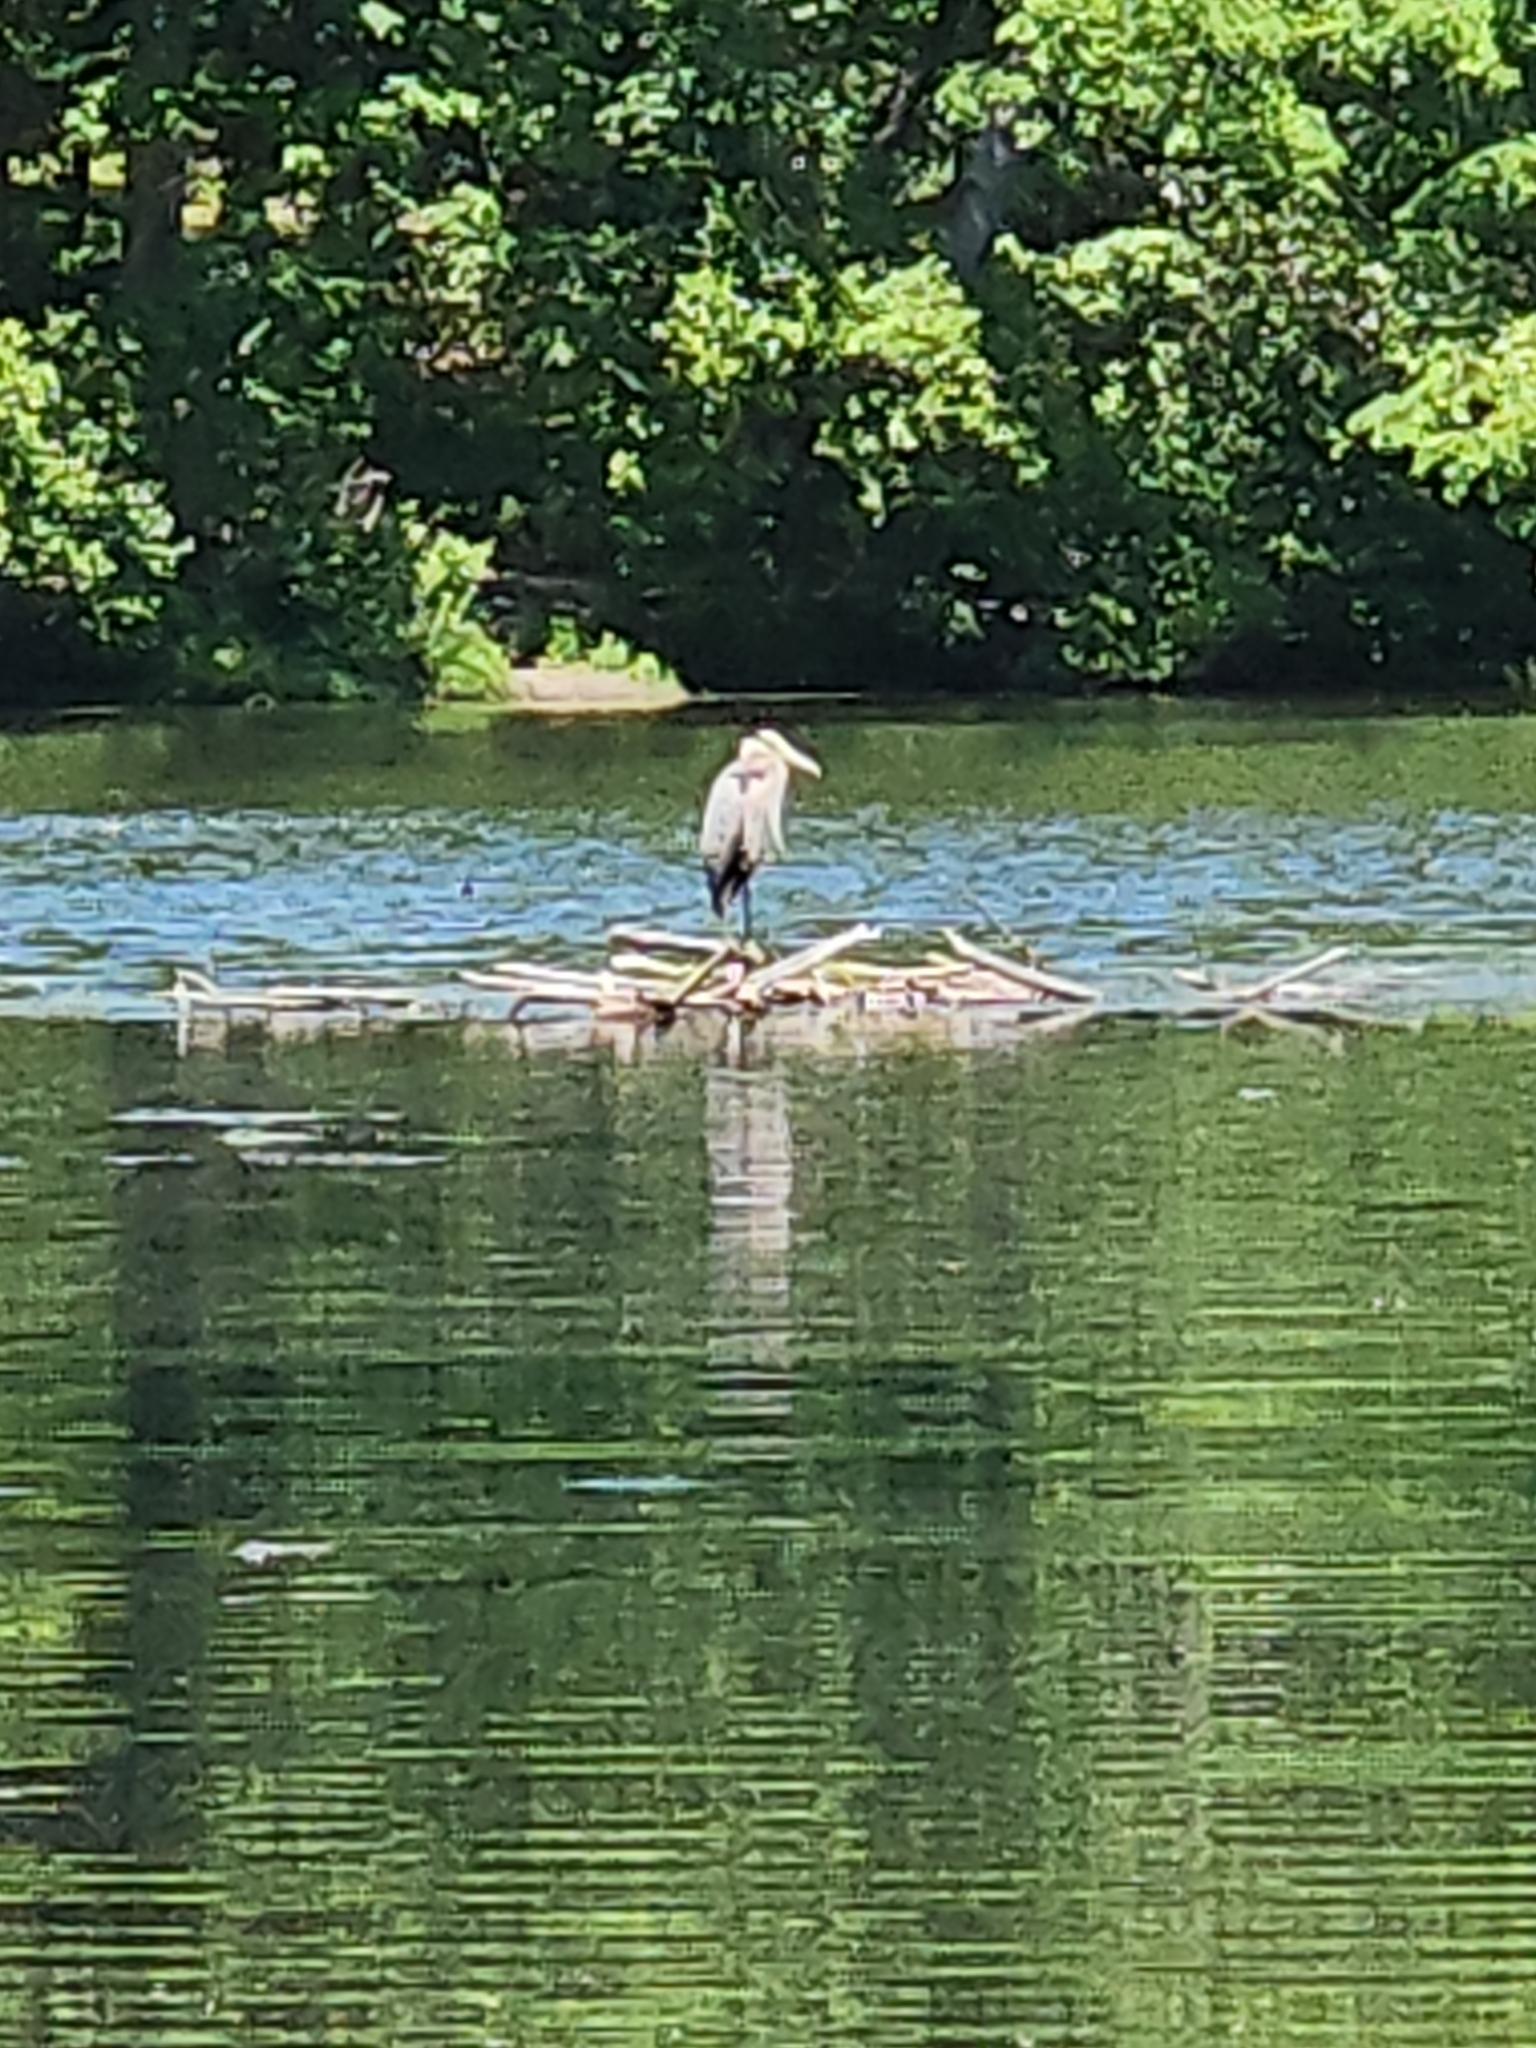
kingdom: Animalia
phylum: Chordata
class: Aves
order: Pelecaniformes
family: Ardeidae
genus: Ardea
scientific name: Ardea herodias
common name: Great blue heron
